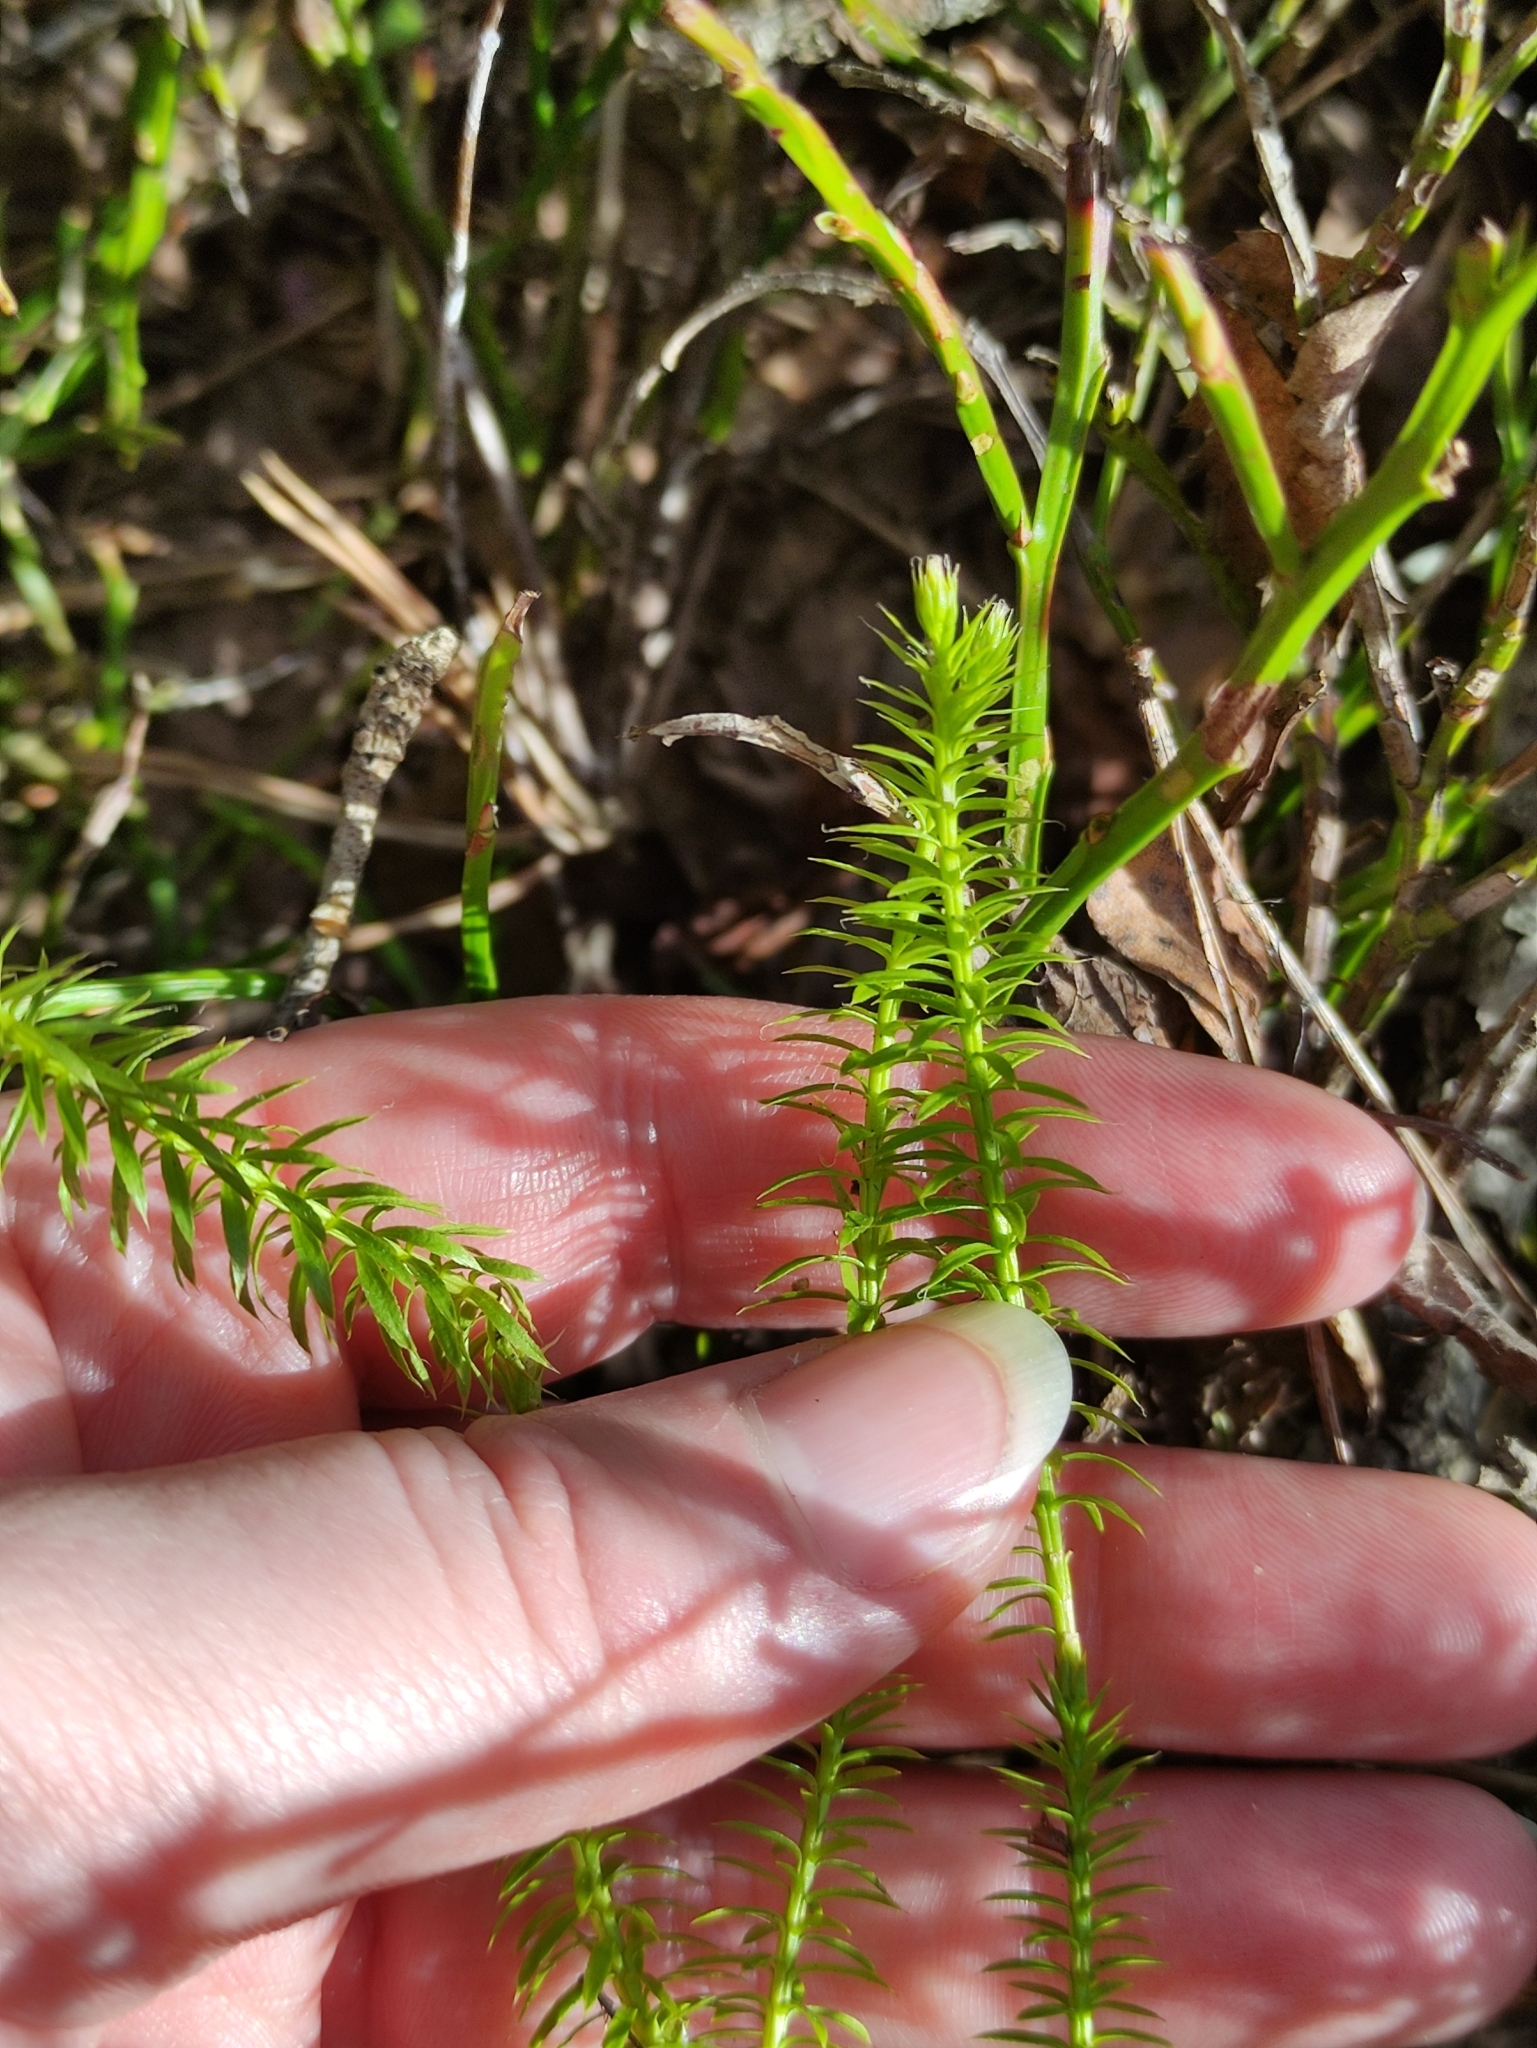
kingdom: Plantae
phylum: Tracheophyta
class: Lycopodiopsida
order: Lycopodiales
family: Lycopodiaceae
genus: Spinulum
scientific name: Spinulum annotinum
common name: Interrupted club-moss
